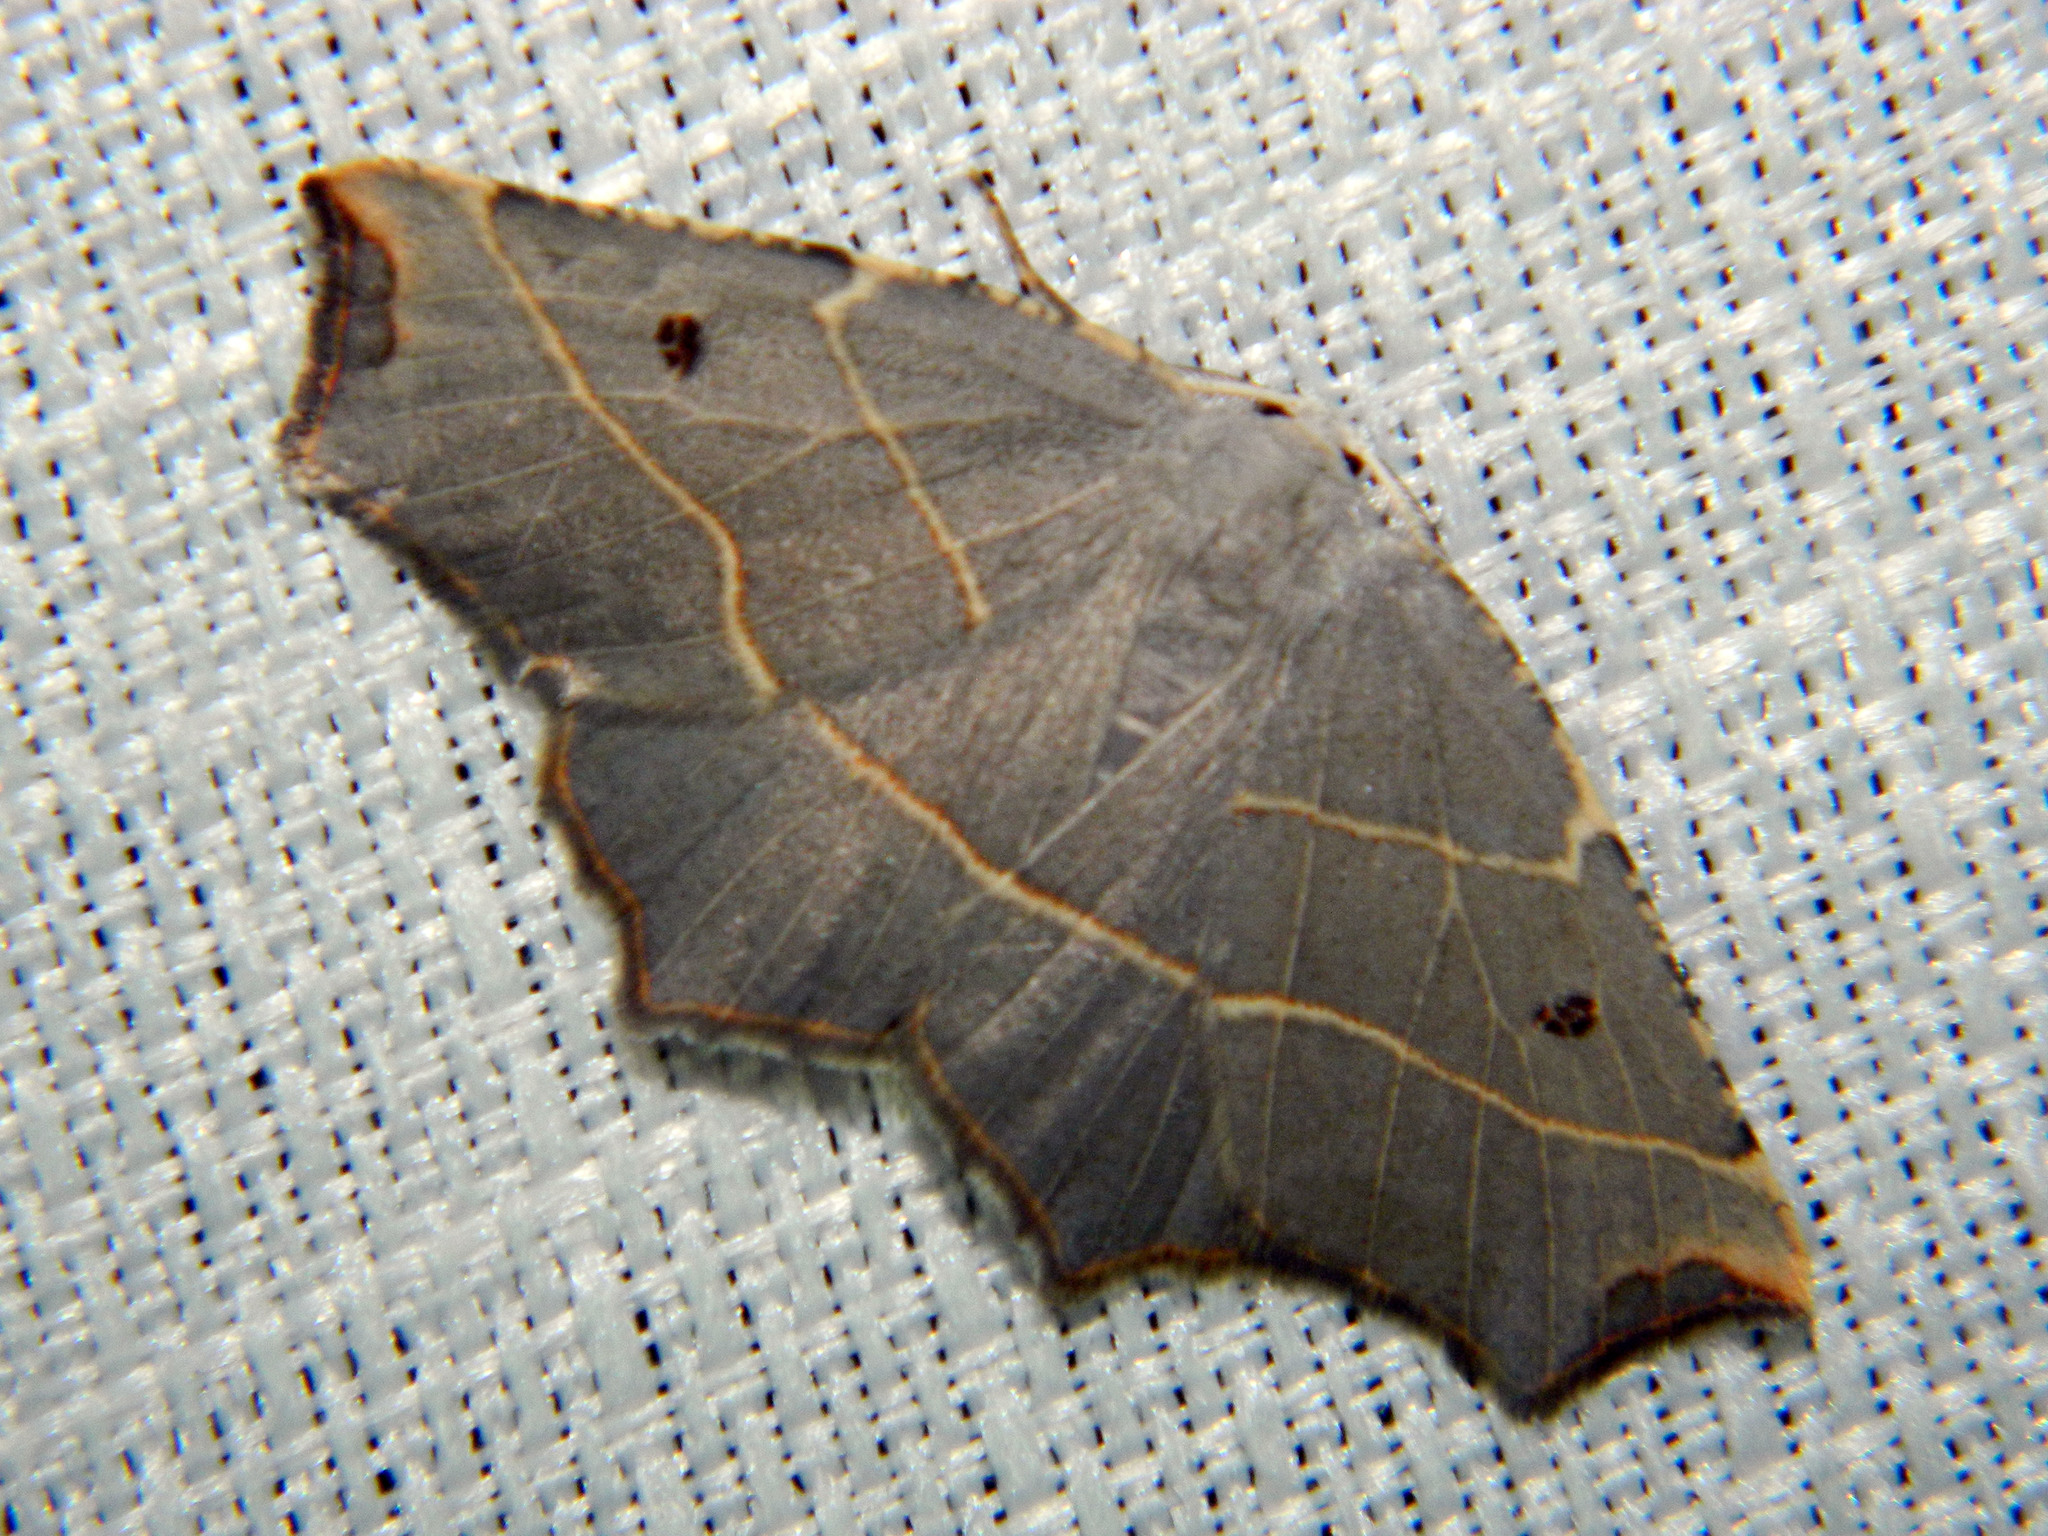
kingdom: Animalia
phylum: Arthropoda
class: Insecta
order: Lepidoptera
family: Geometridae
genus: Metanema
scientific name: Metanema inatomaria
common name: Pale metanema
